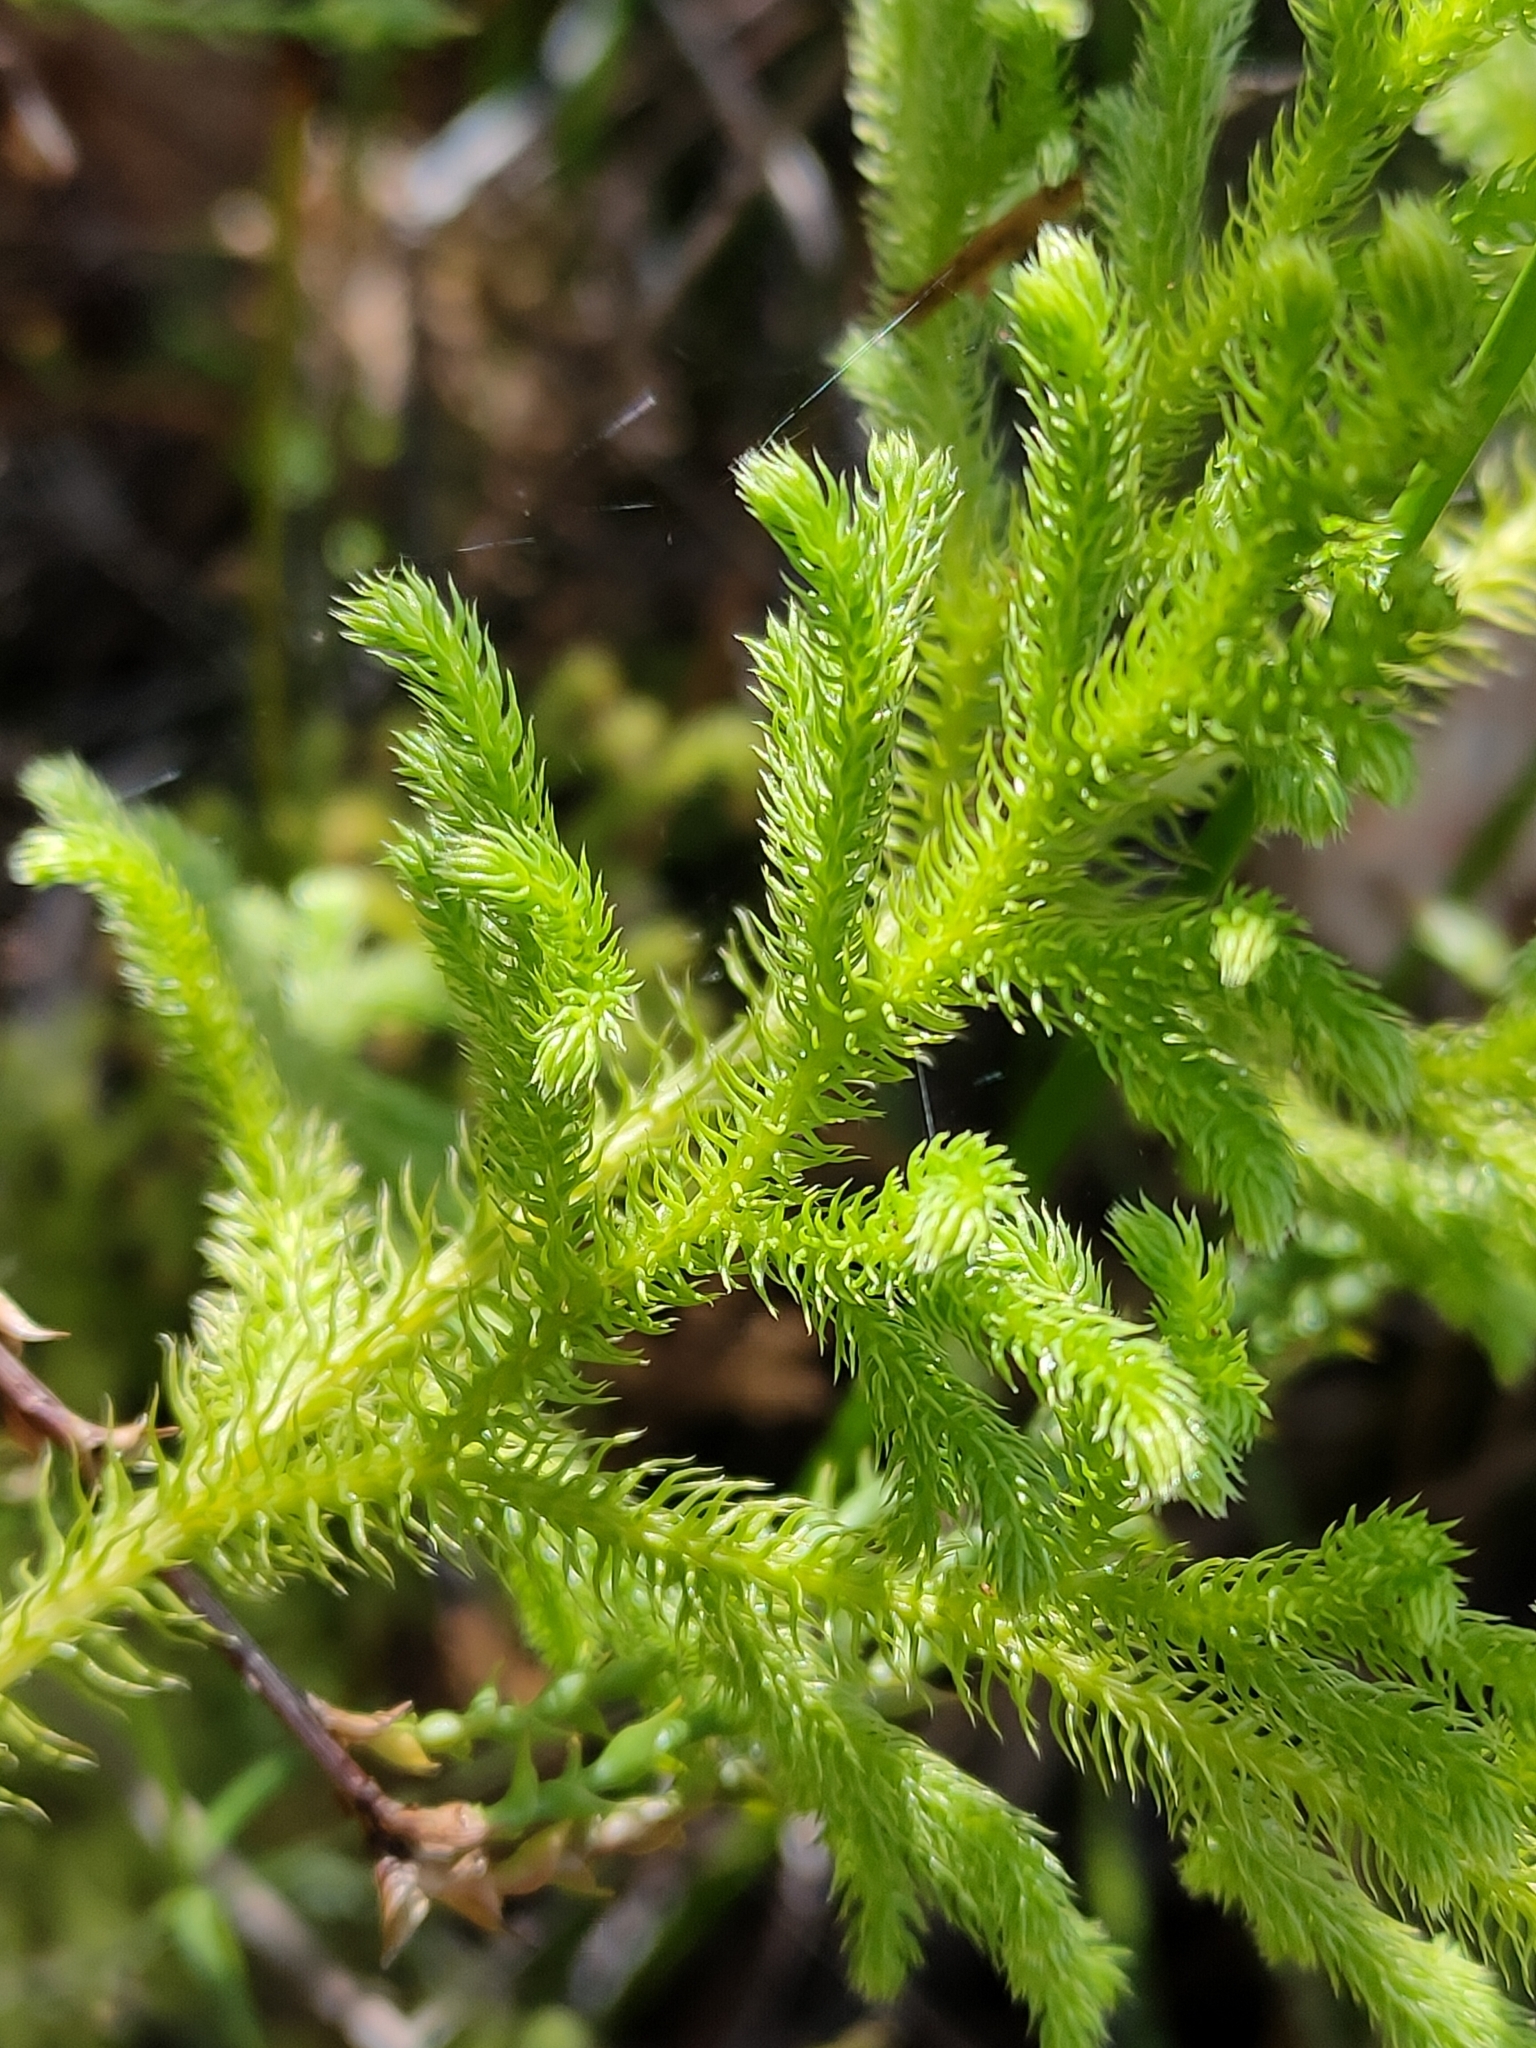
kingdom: Plantae
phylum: Tracheophyta
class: Lycopodiopsida
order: Lycopodiales
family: Lycopodiaceae
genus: Palhinhaea
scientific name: Palhinhaea cernua
